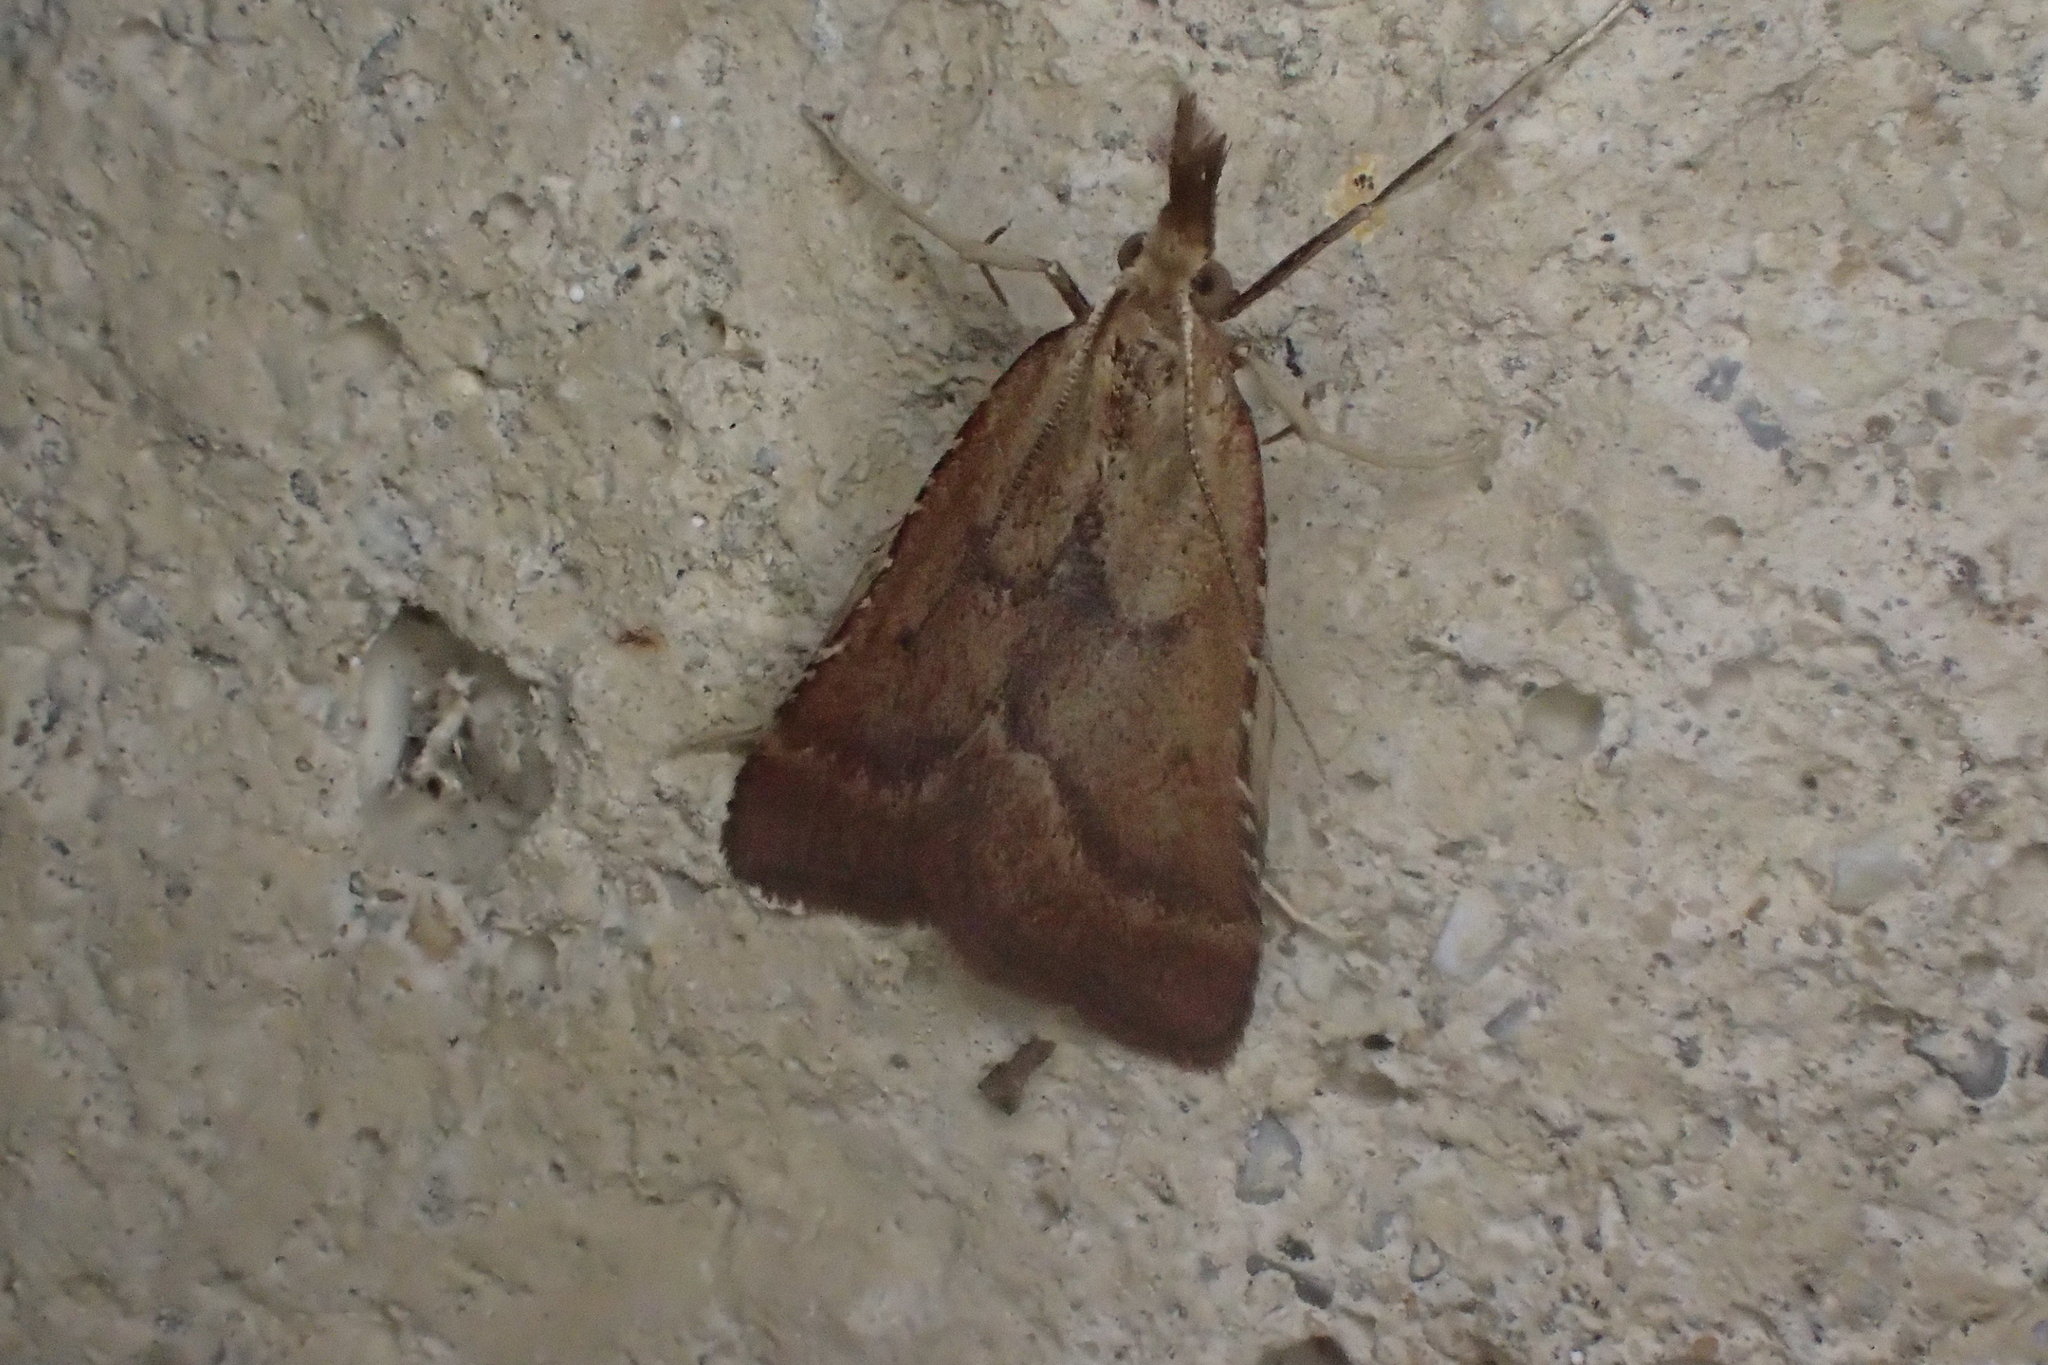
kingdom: Animalia
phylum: Arthropoda
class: Insecta
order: Lepidoptera
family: Pyralidae
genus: Synaphe
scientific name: Synaphe punctalis
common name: Long-legged tabby
